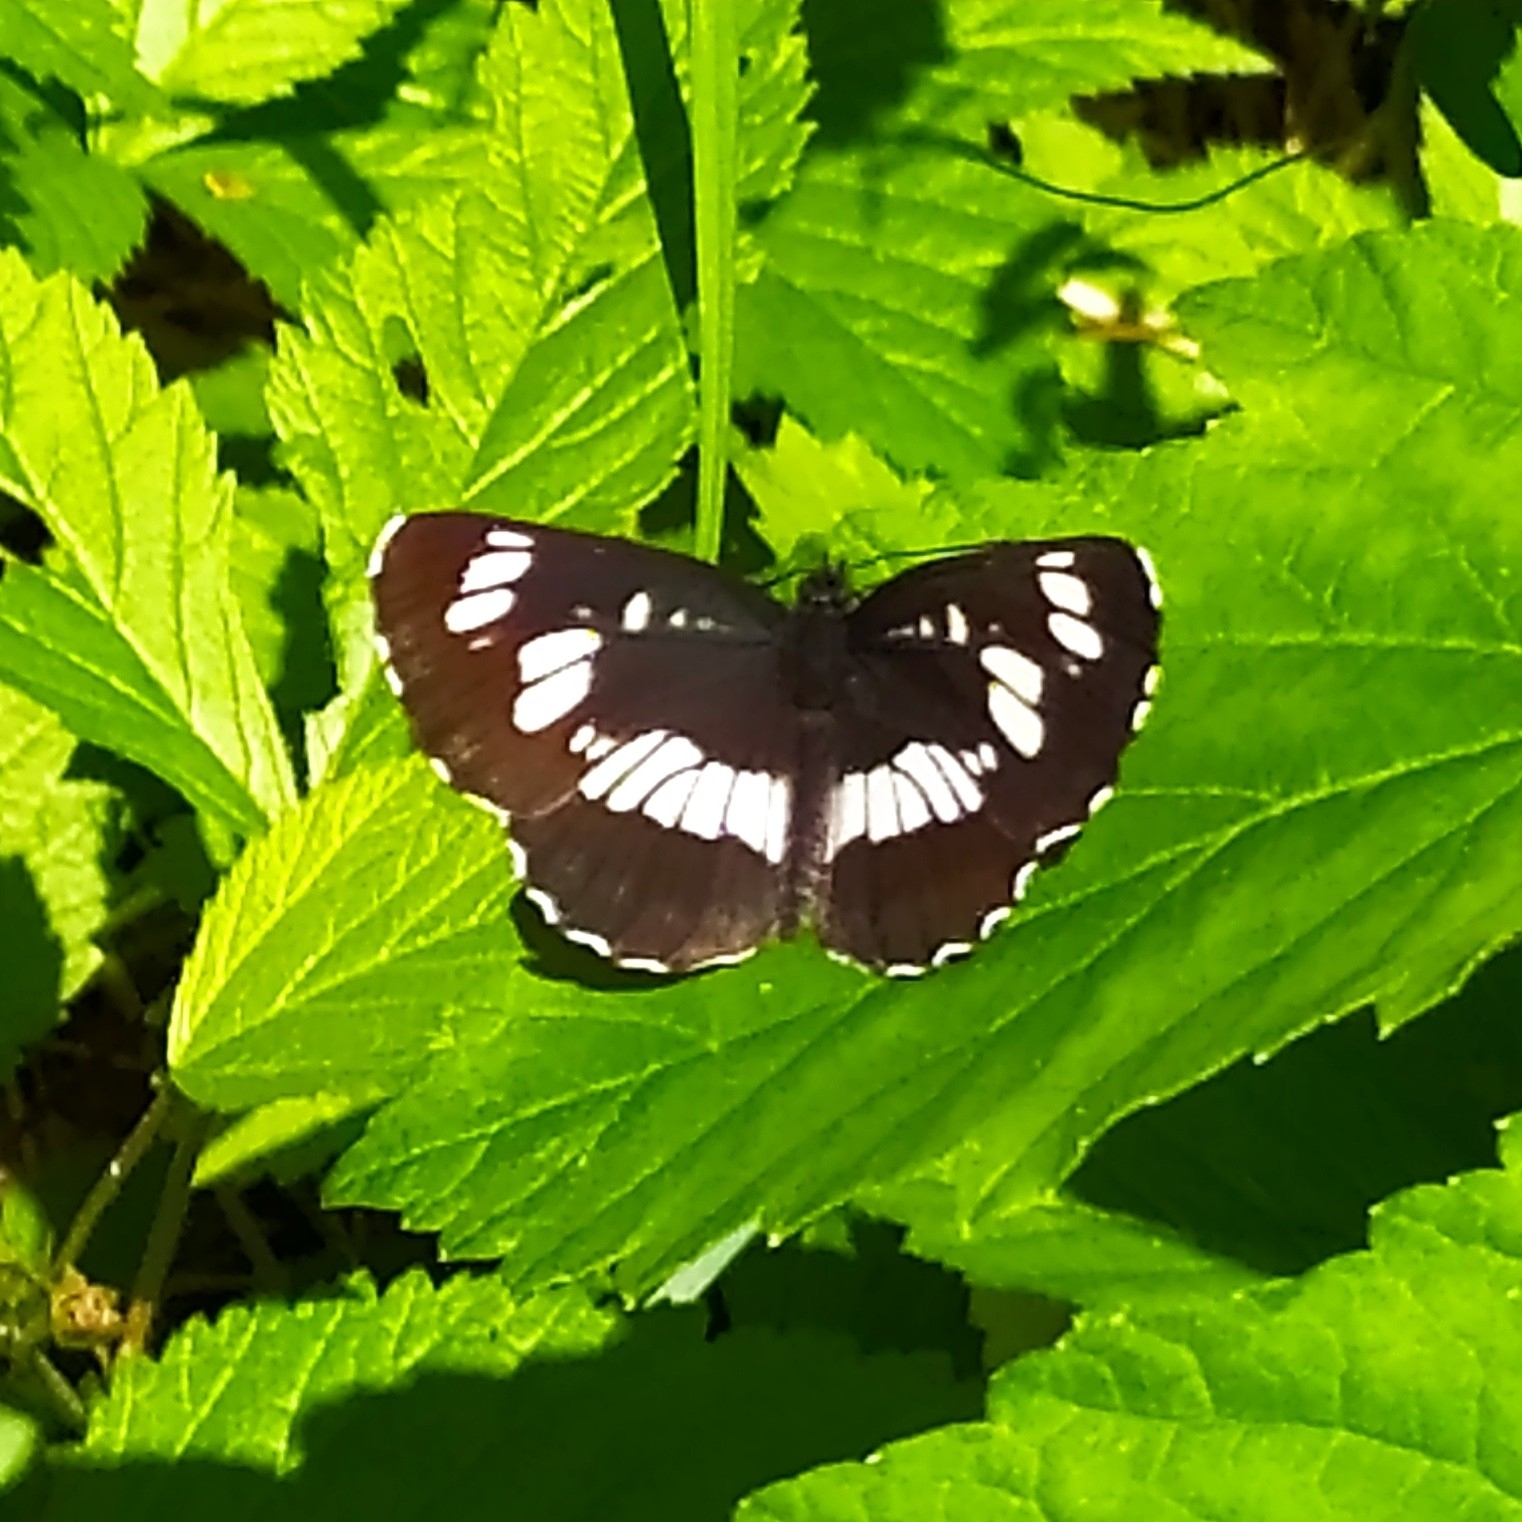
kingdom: Animalia
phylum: Arthropoda
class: Insecta
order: Lepidoptera
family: Nymphalidae
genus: Neptis
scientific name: Neptis rivularis
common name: Hungarian glider
